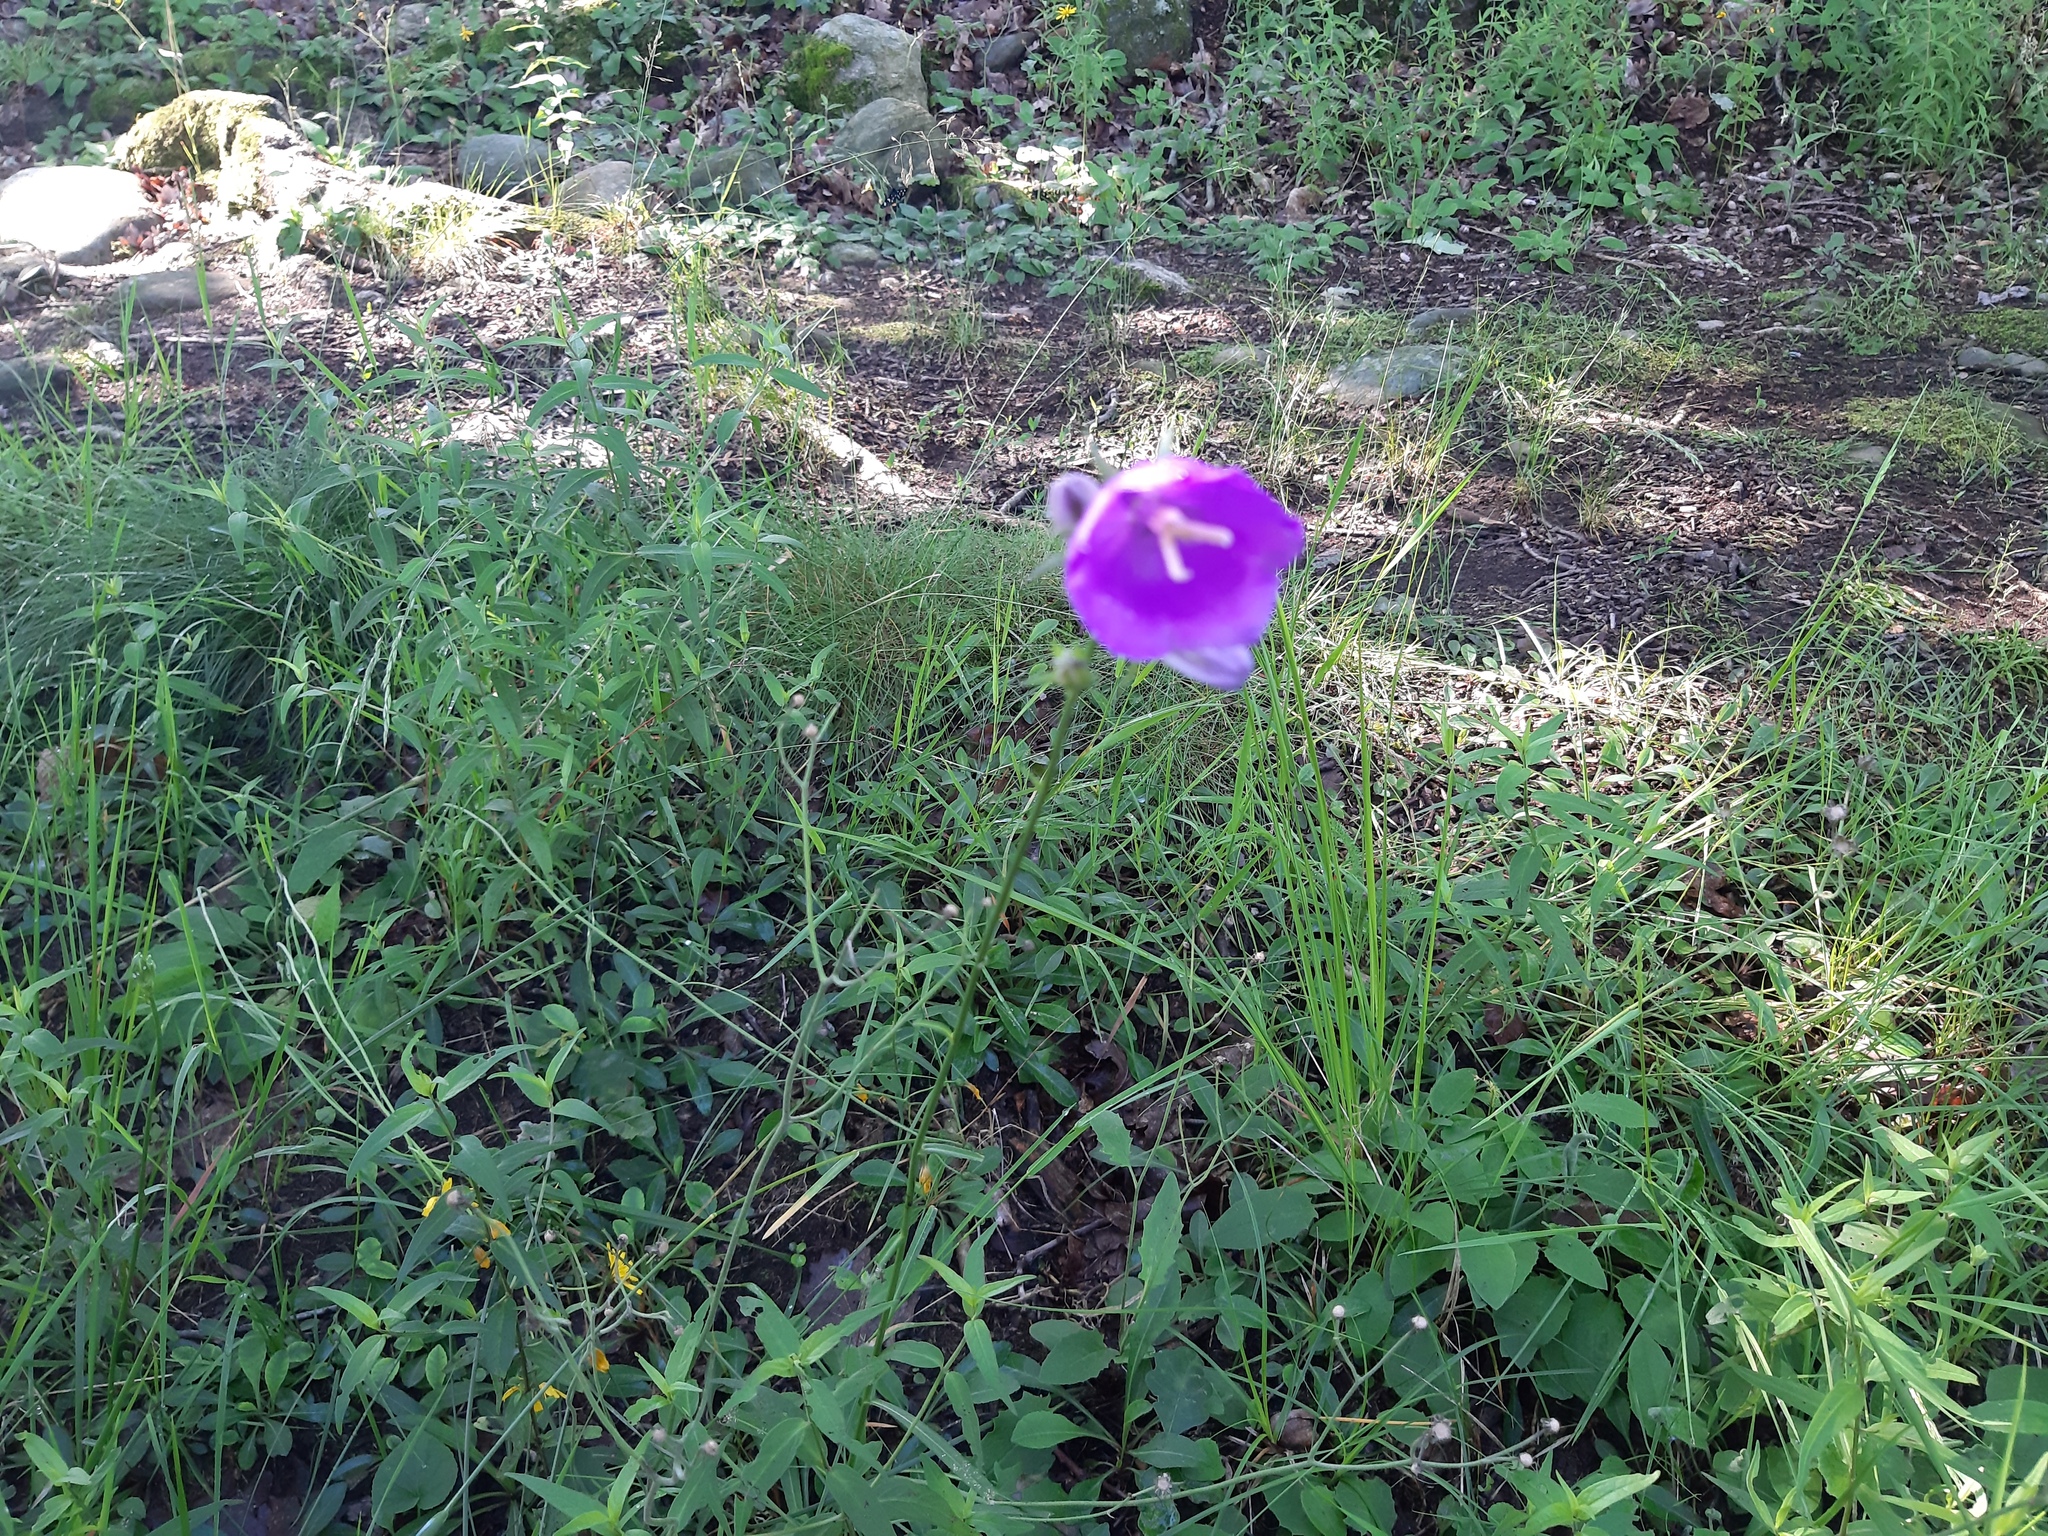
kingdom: Plantae
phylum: Tracheophyta
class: Magnoliopsida
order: Asterales
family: Campanulaceae
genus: Campanula
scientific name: Campanula persicifolia
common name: Peach-leaved bellflower
